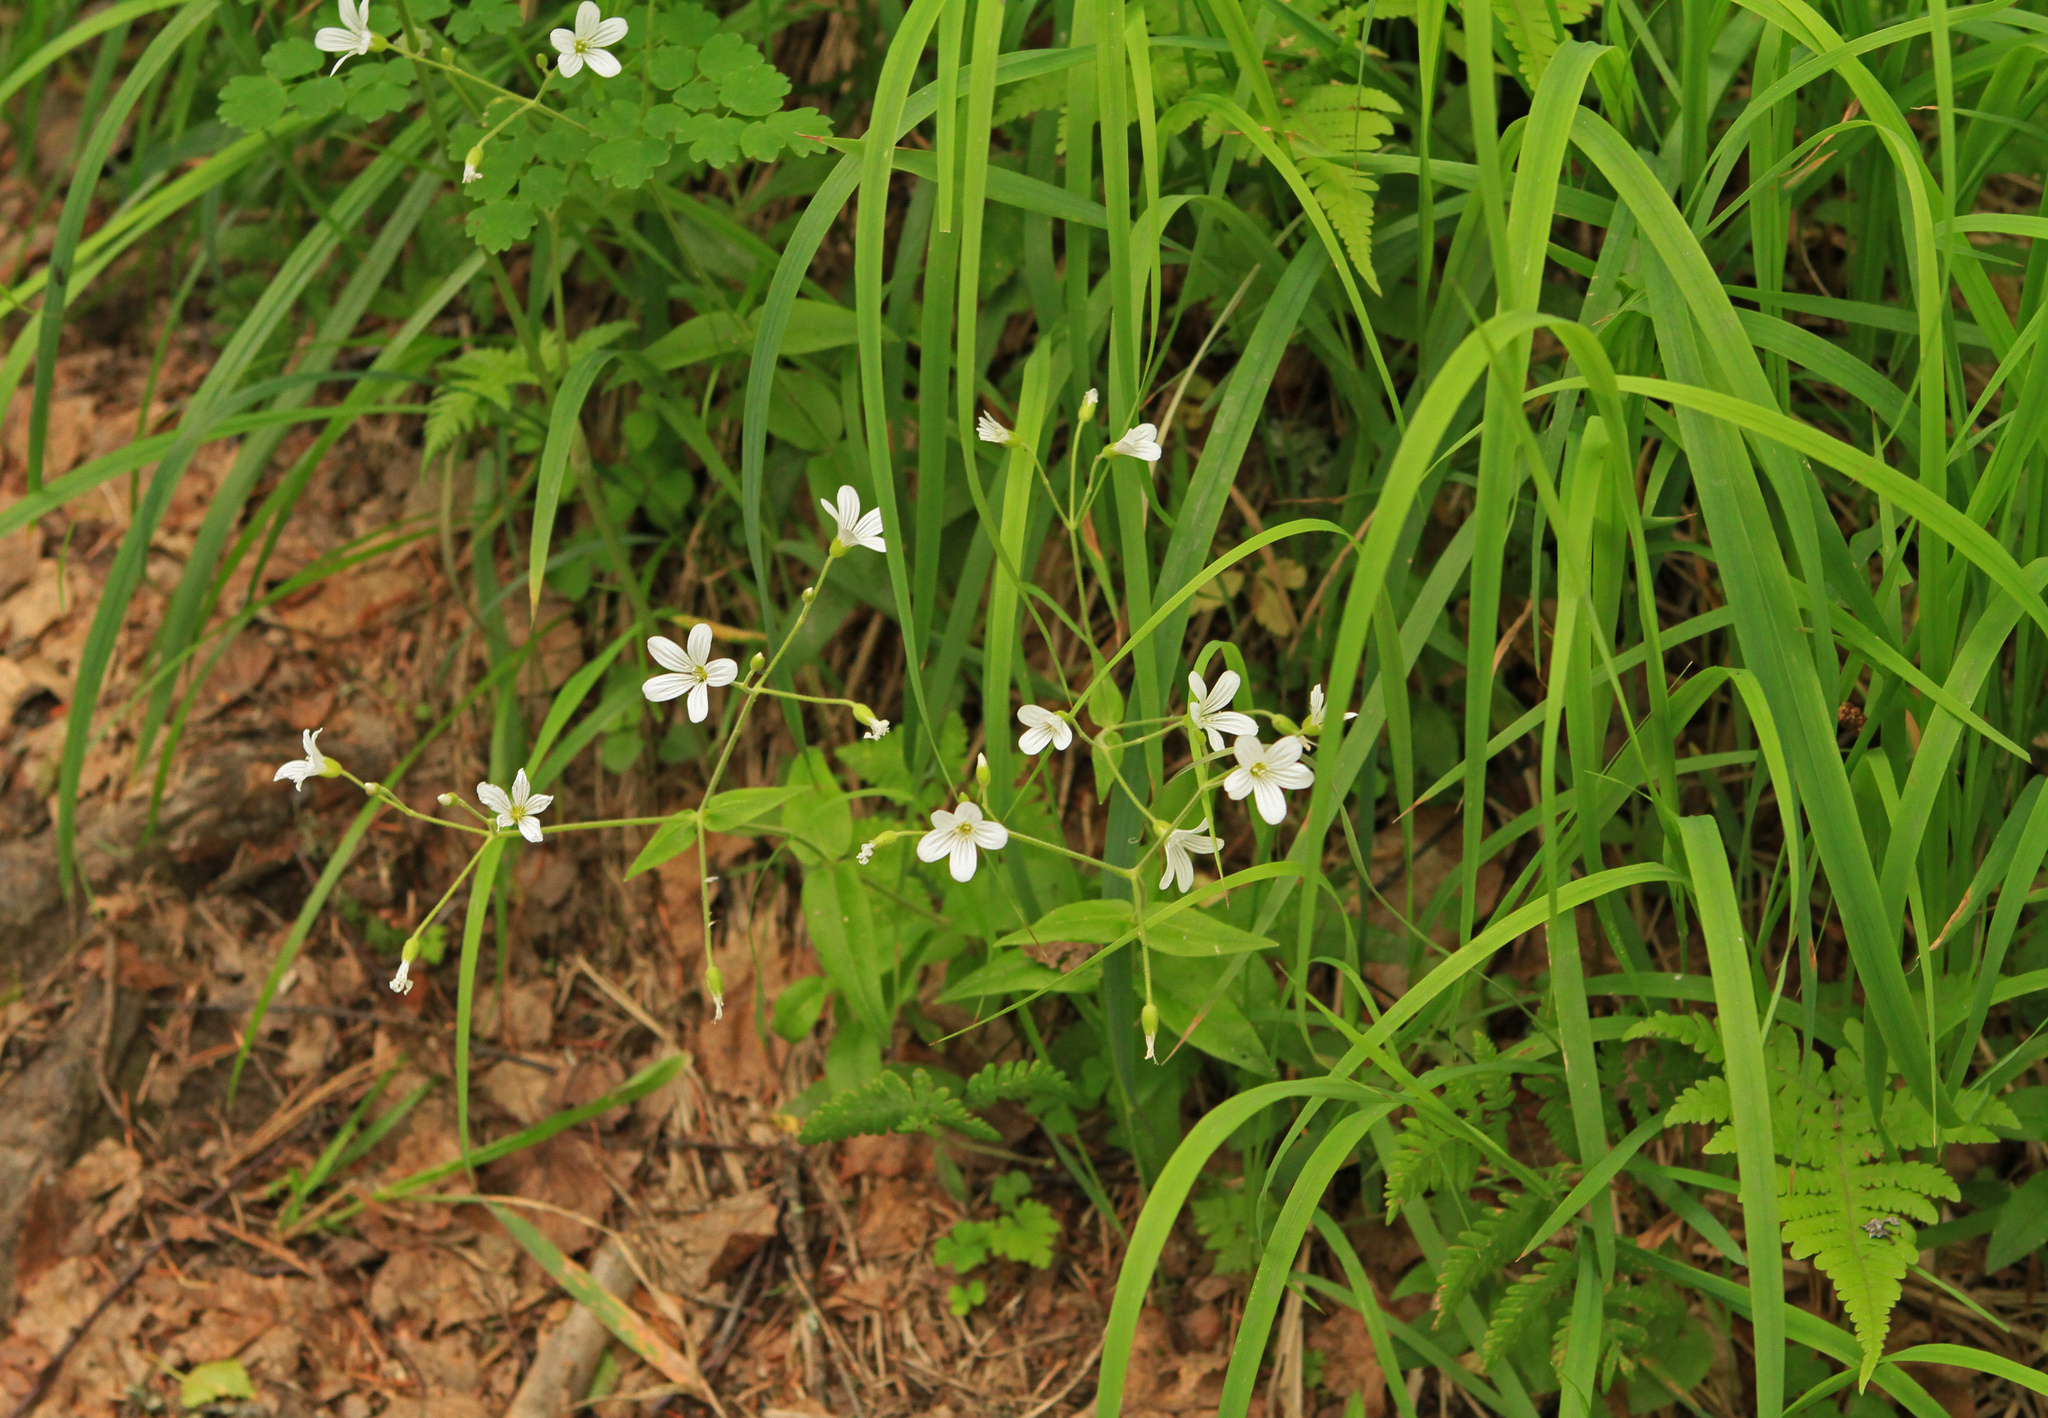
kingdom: Plantae
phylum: Tracheophyta
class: Magnoliopsida
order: Caryophyllales
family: Caryophyllaceae
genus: Cerastium
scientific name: Cerastium pauciflorum
